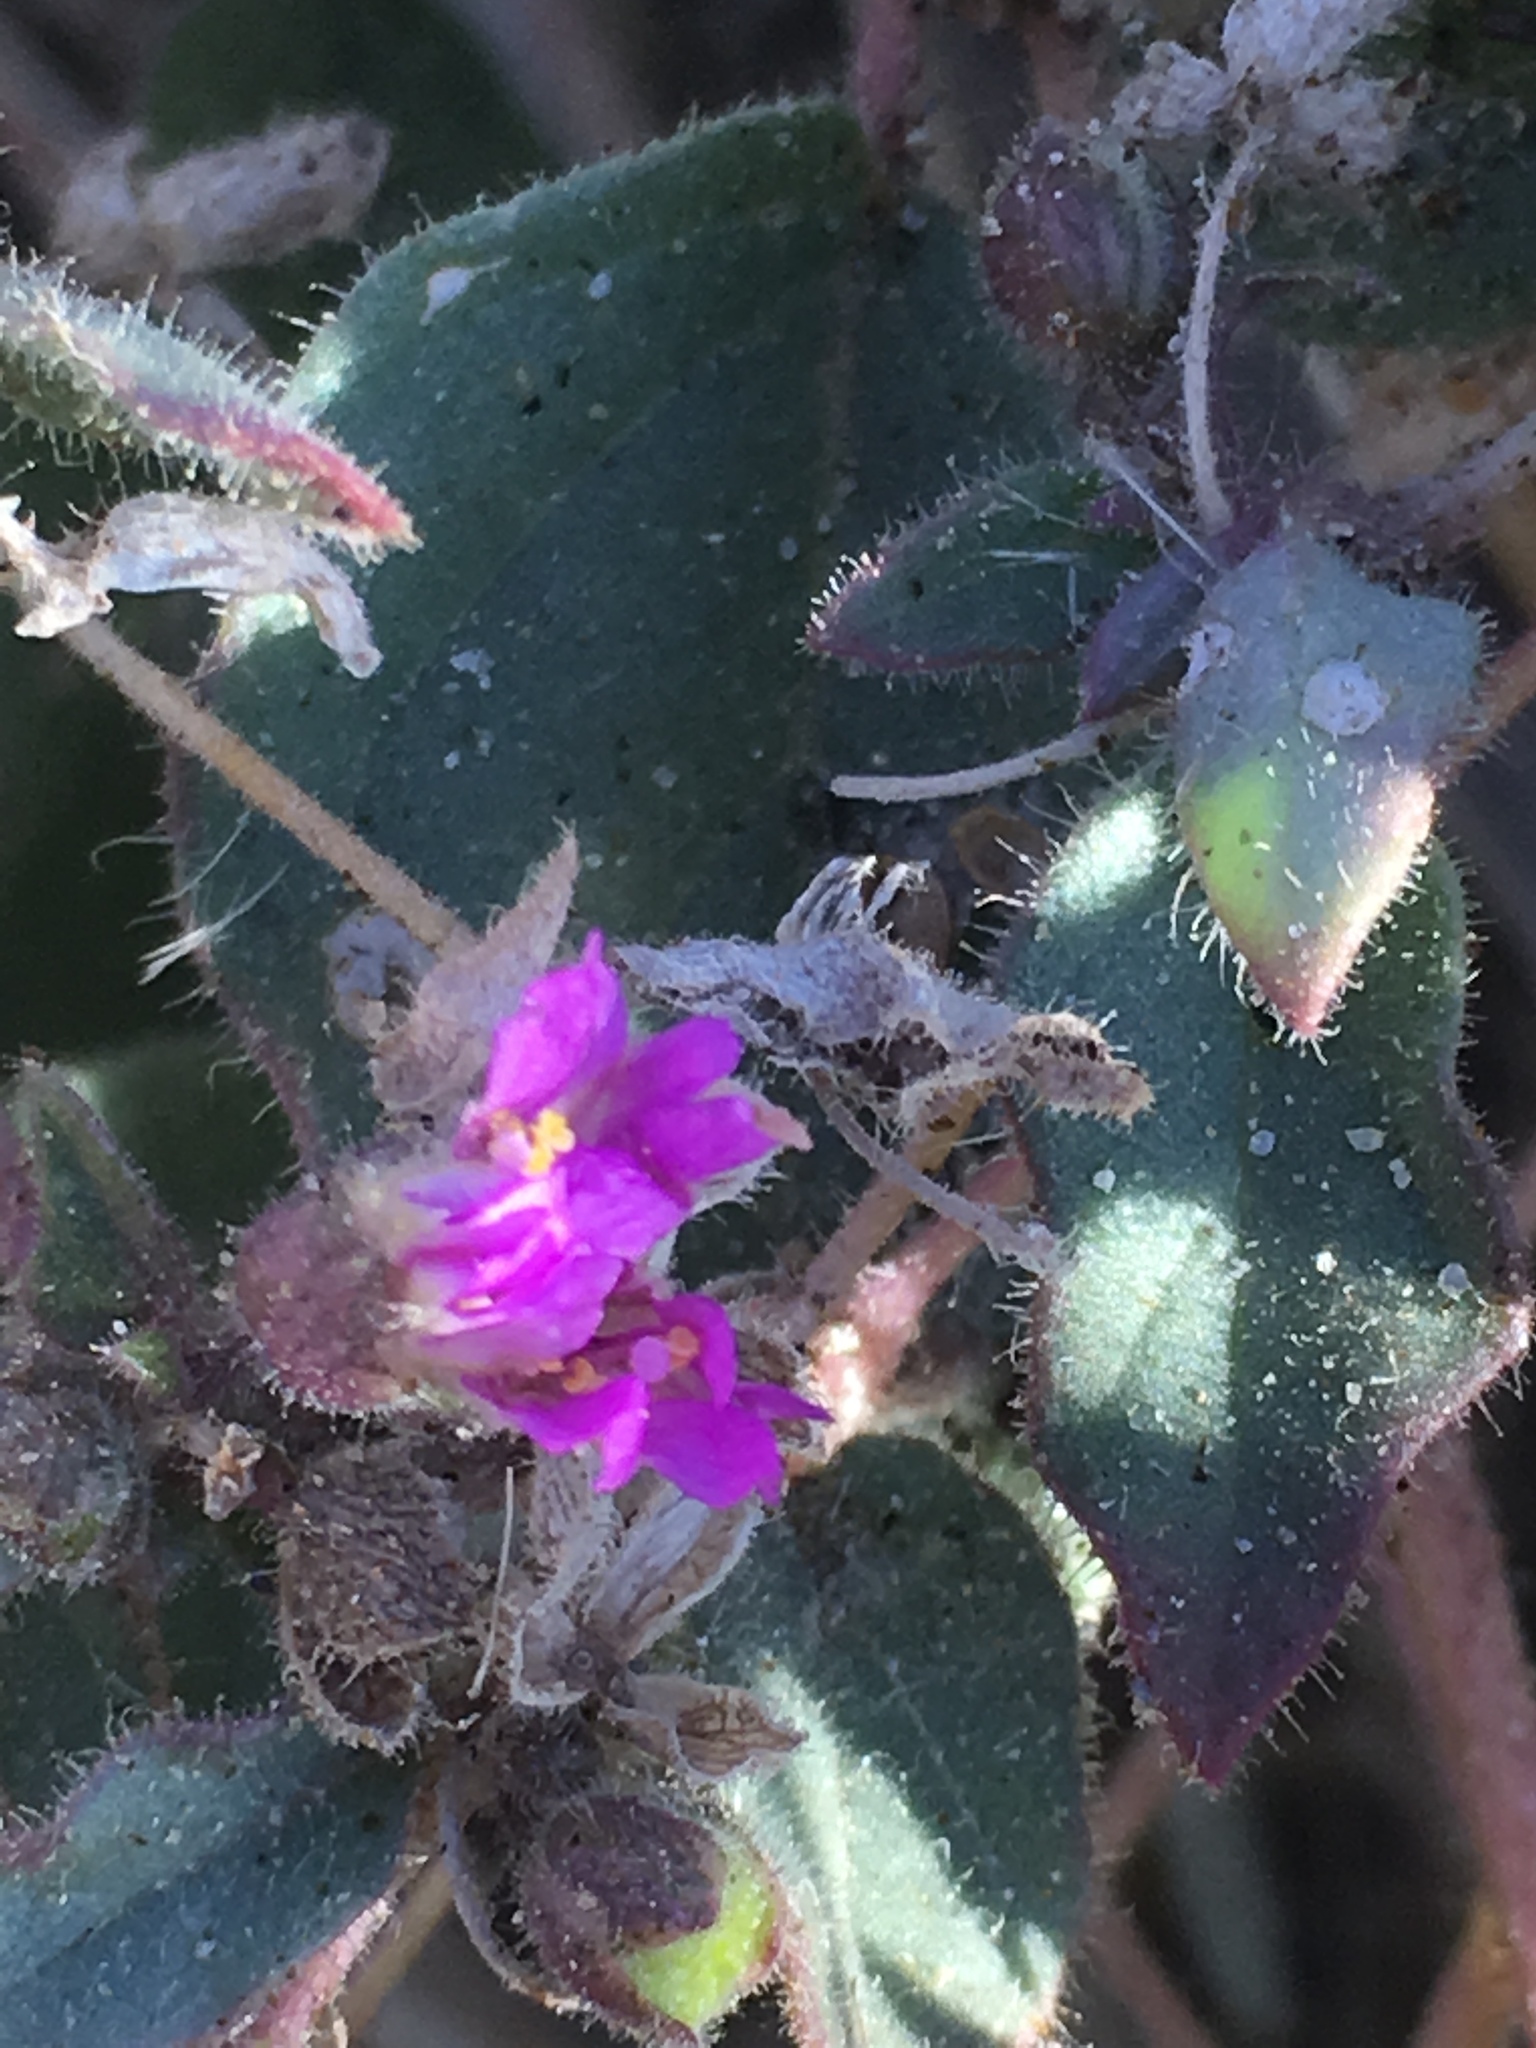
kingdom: Plantae
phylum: Tracheophyta
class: Magnoliopsida
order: Caryophyllales
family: Nyctaginaceae
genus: Allionia
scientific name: Allionia incarnata
